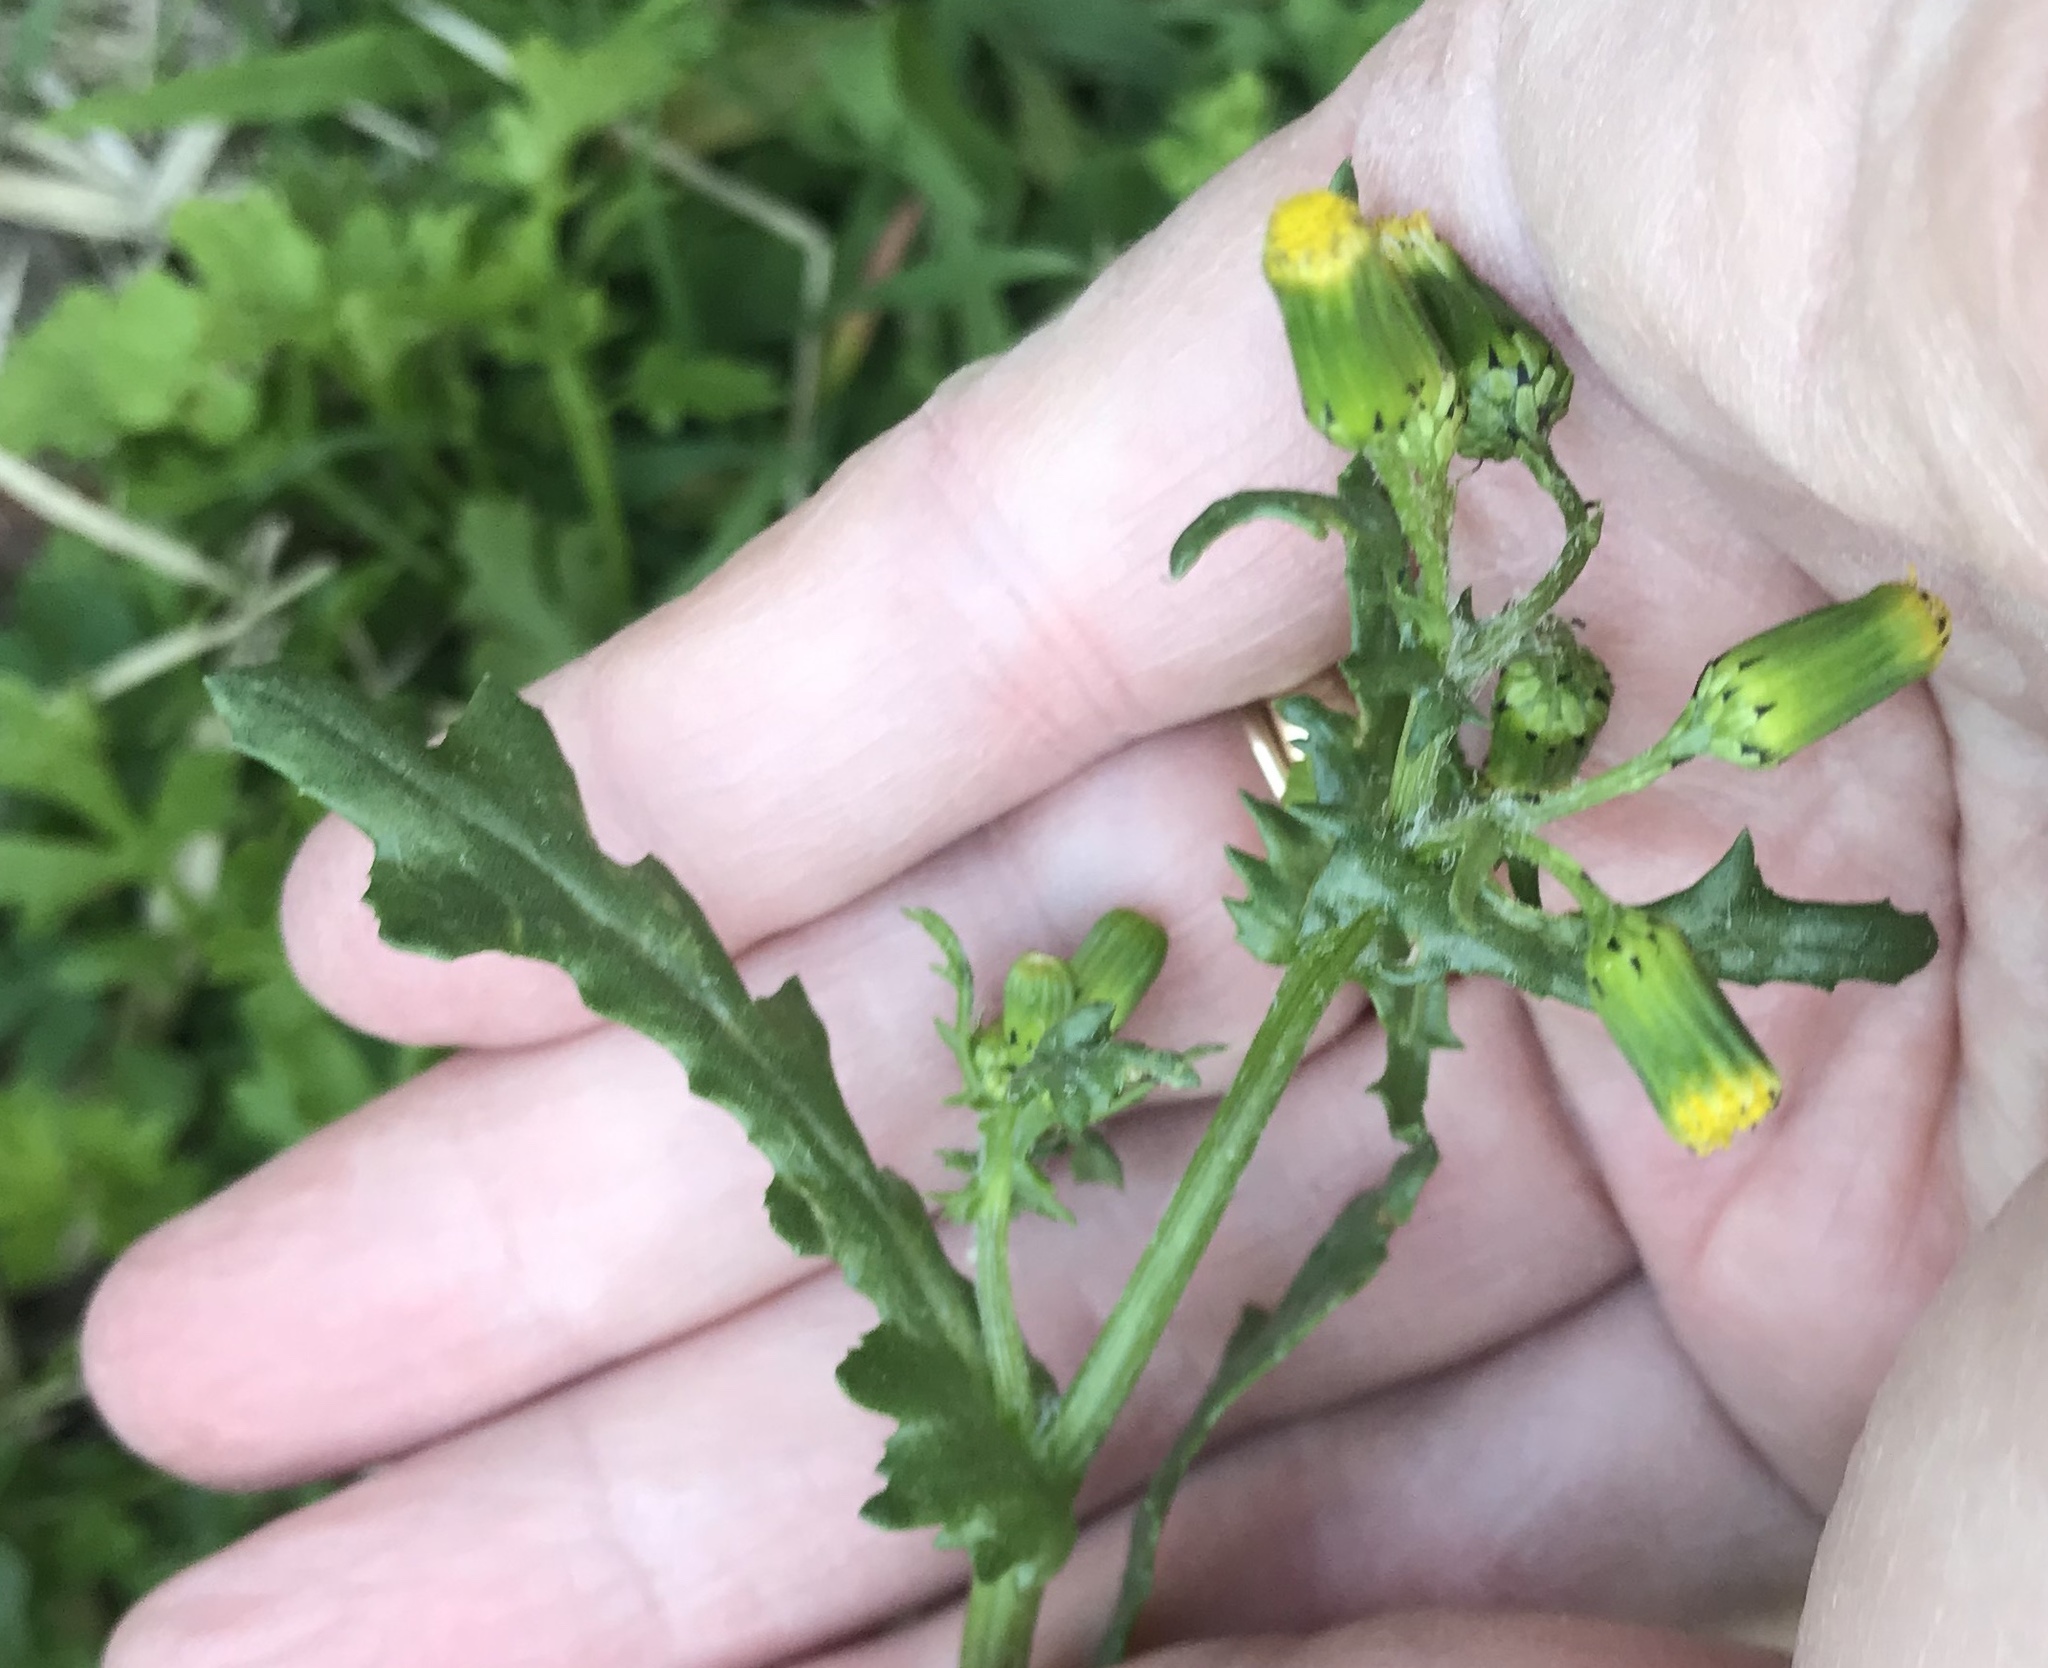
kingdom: Plantae
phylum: Tracheophyta
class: Magnoliopsida
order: Asterales
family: Asteraceae
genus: Senecio
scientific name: Senecio vulgaris
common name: Old-man-in-the-spring
